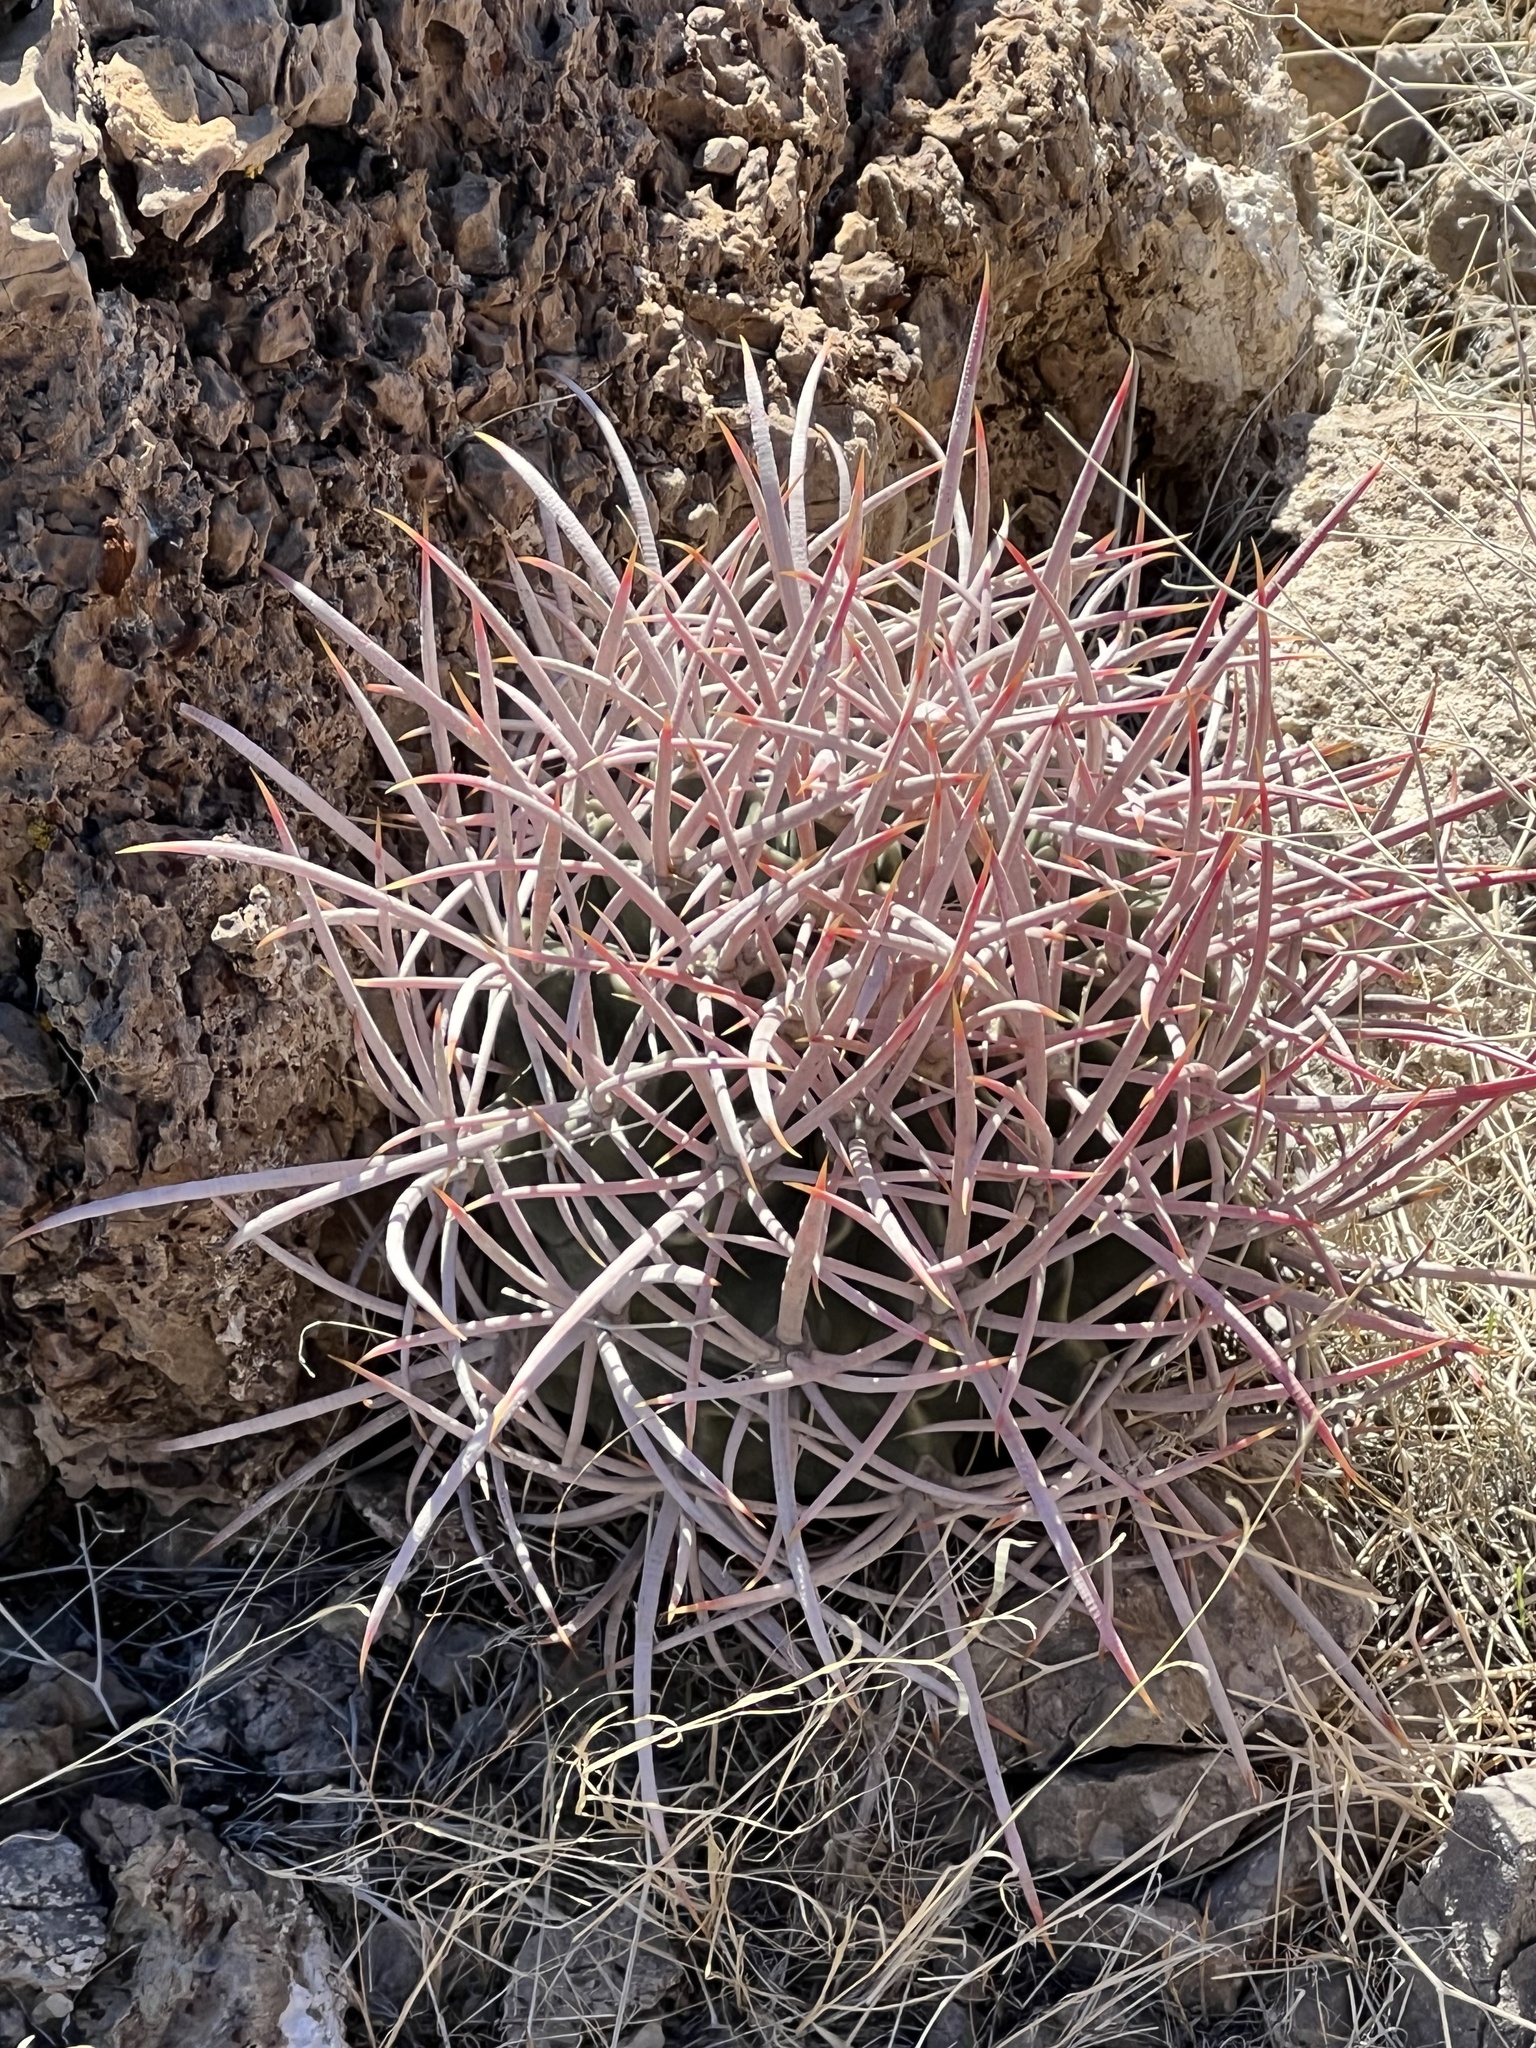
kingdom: Plantae
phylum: Tracheophyta
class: Magnoliopsida
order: Caryophyllales
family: Cactaceae
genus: Echinocactus
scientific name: Echinocactus polycephalus
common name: Cottontop cactus
